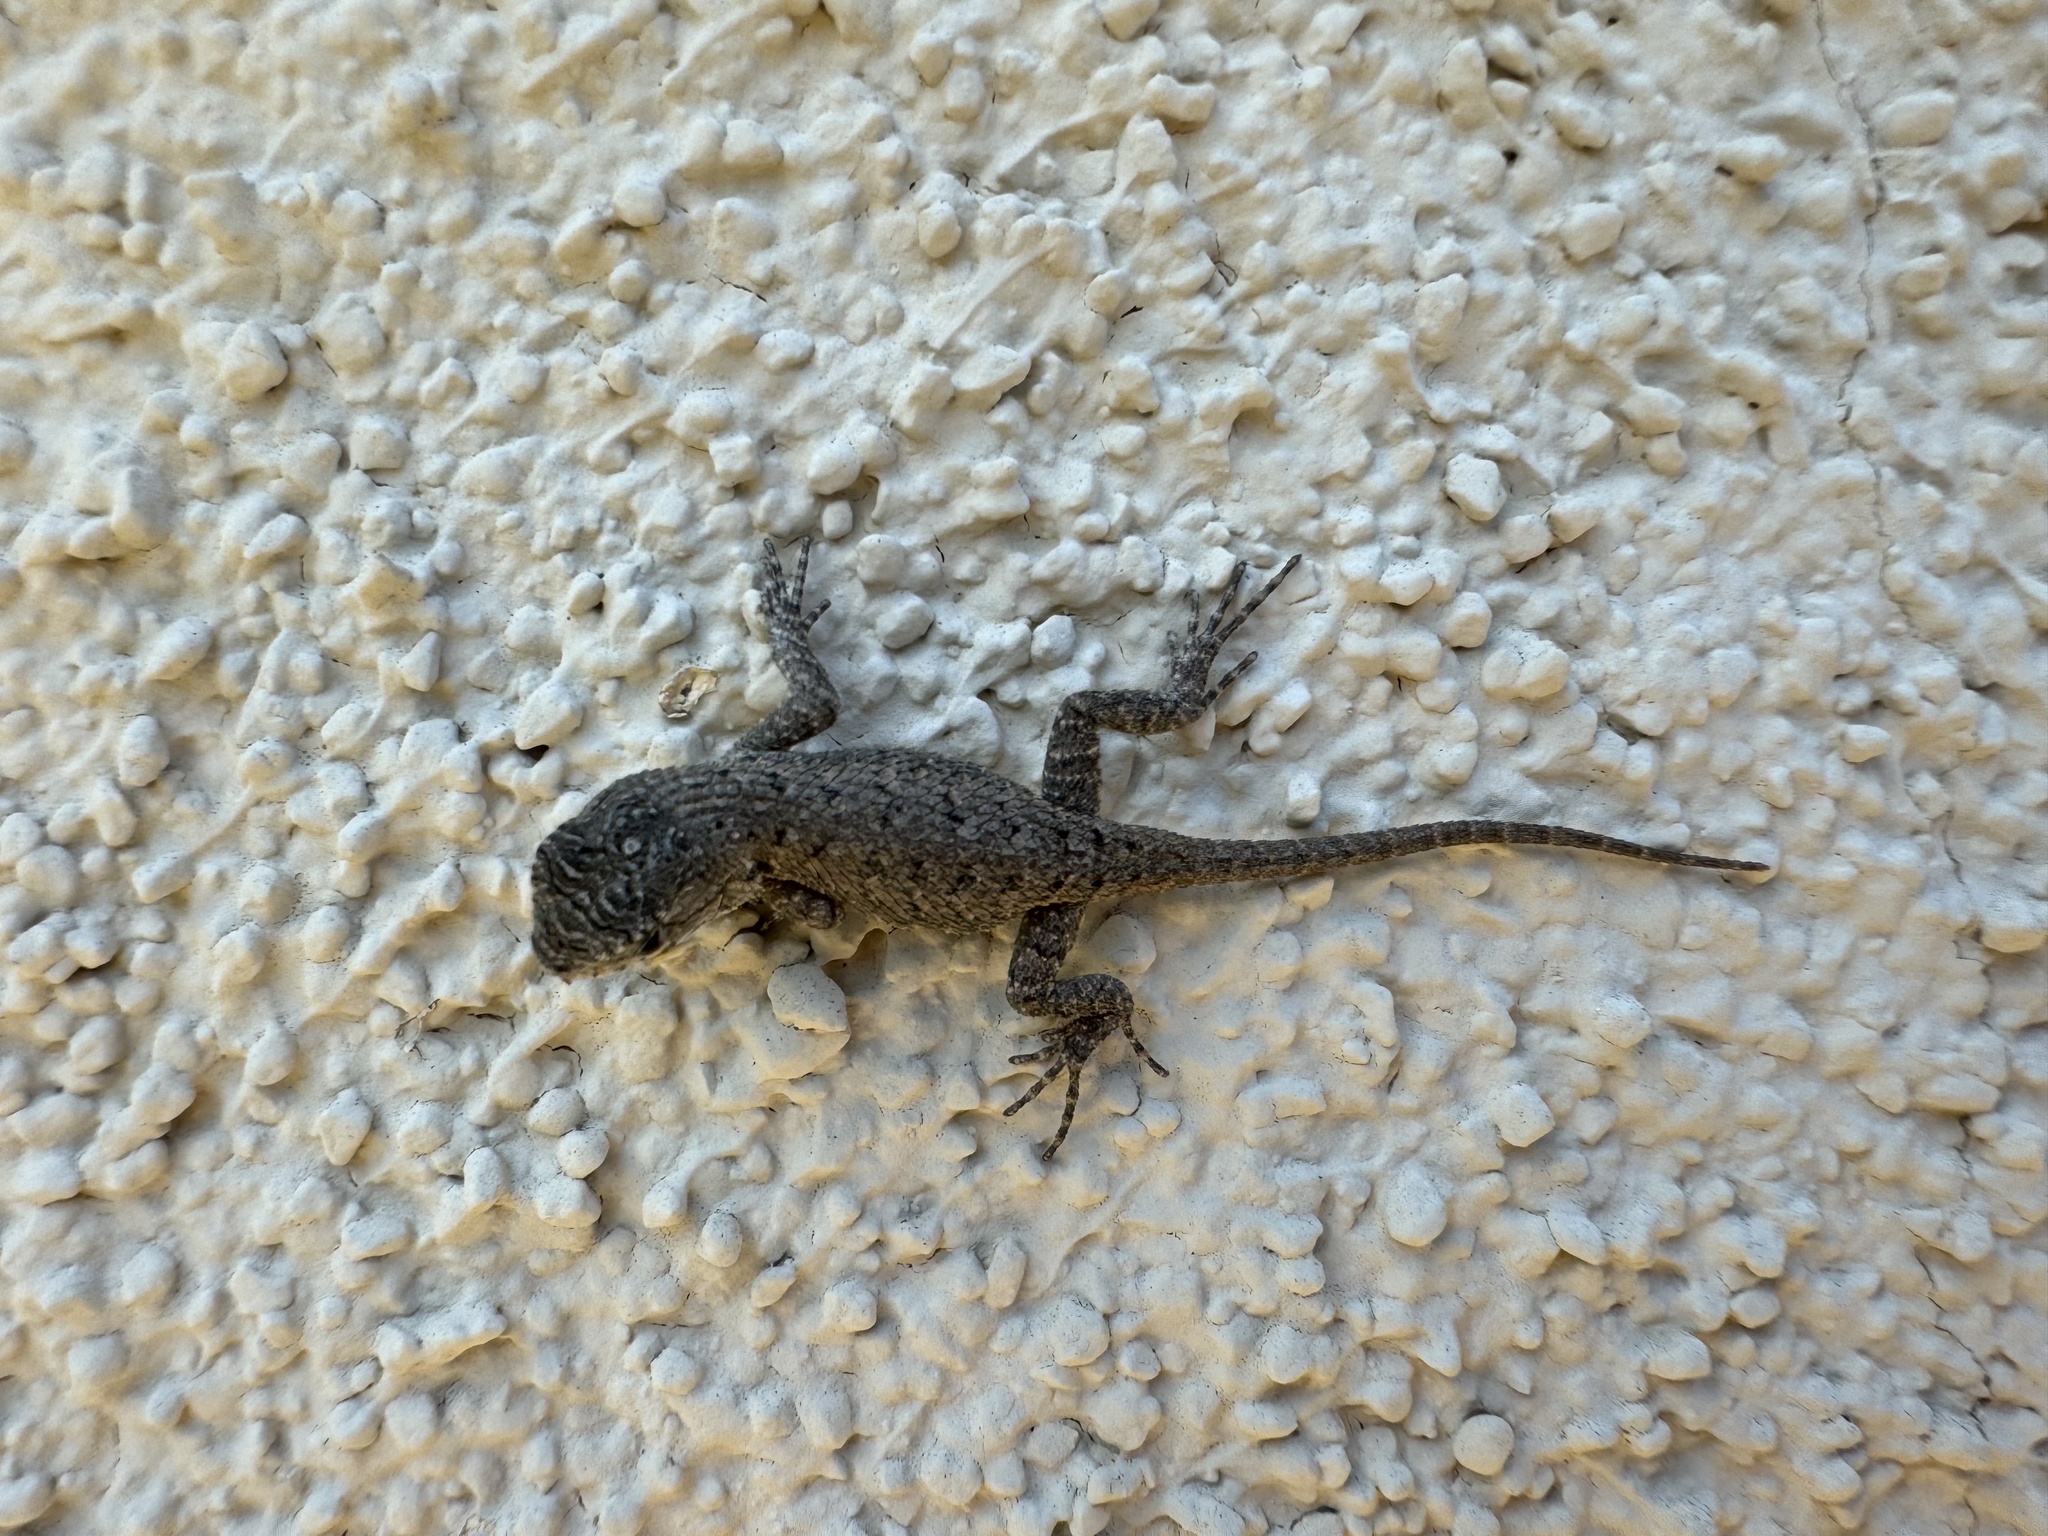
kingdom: Animalia
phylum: Chordata
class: Squamata
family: Phrynosomatidae
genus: Sceloporus
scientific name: Sceloporus occidentalis
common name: Western fence lizard
